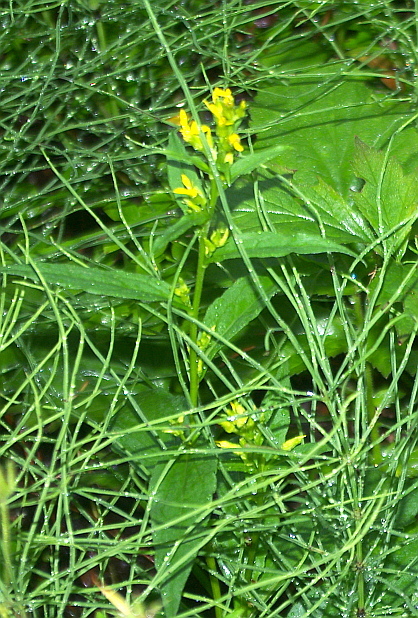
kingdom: Plantae
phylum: Tracheophyta
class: Magnoliopsida
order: Asterales
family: Asteraceae
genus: Solidago
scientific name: Solidago virgaurea
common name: Goldenrod
